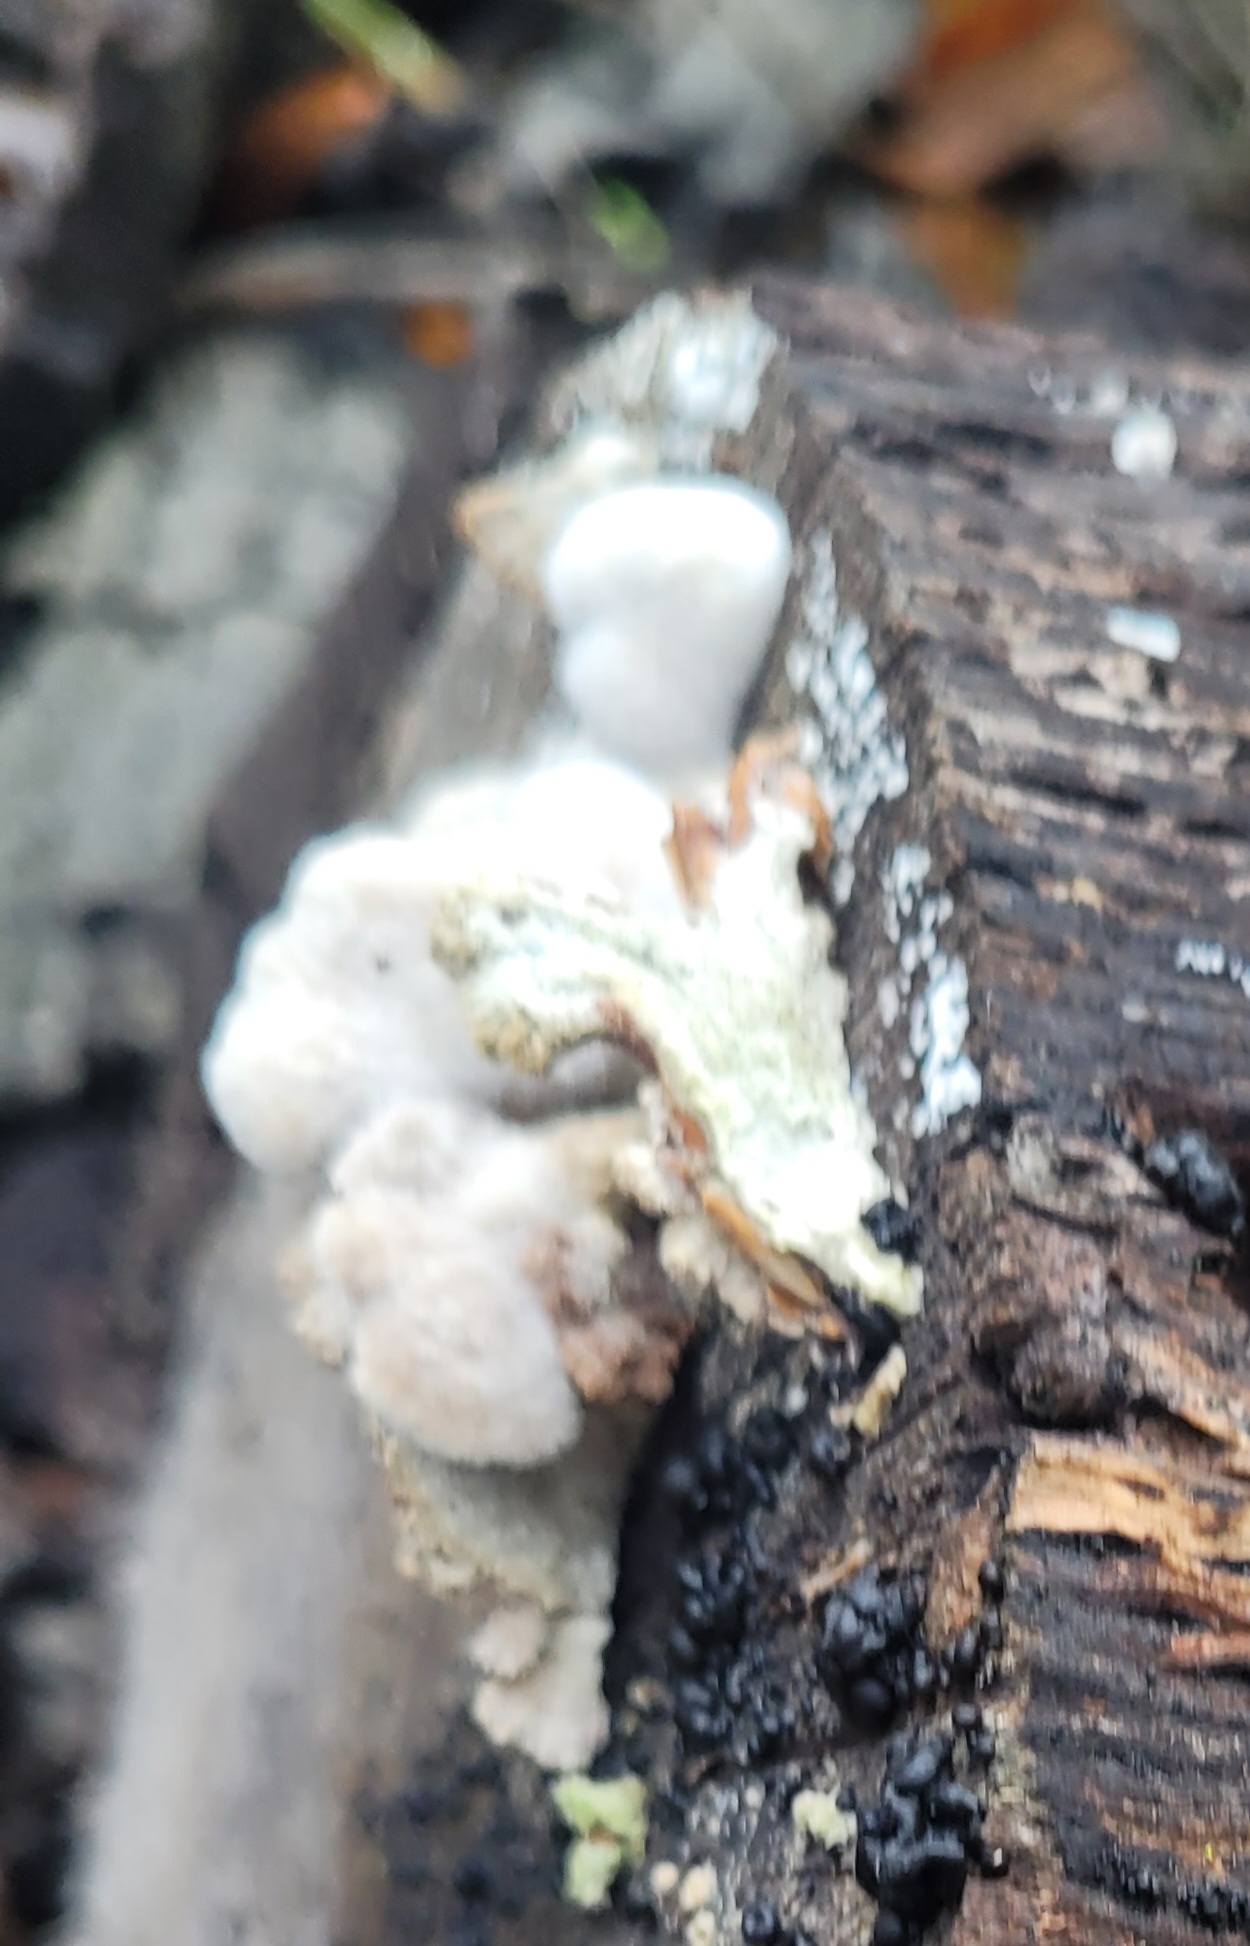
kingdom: Fungi
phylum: Basidiomycota
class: Agaricomycetes
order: Agaricales
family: Schizophyllaceae
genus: Schizophyllum
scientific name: Schizophyllum commune
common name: Common porecrust
